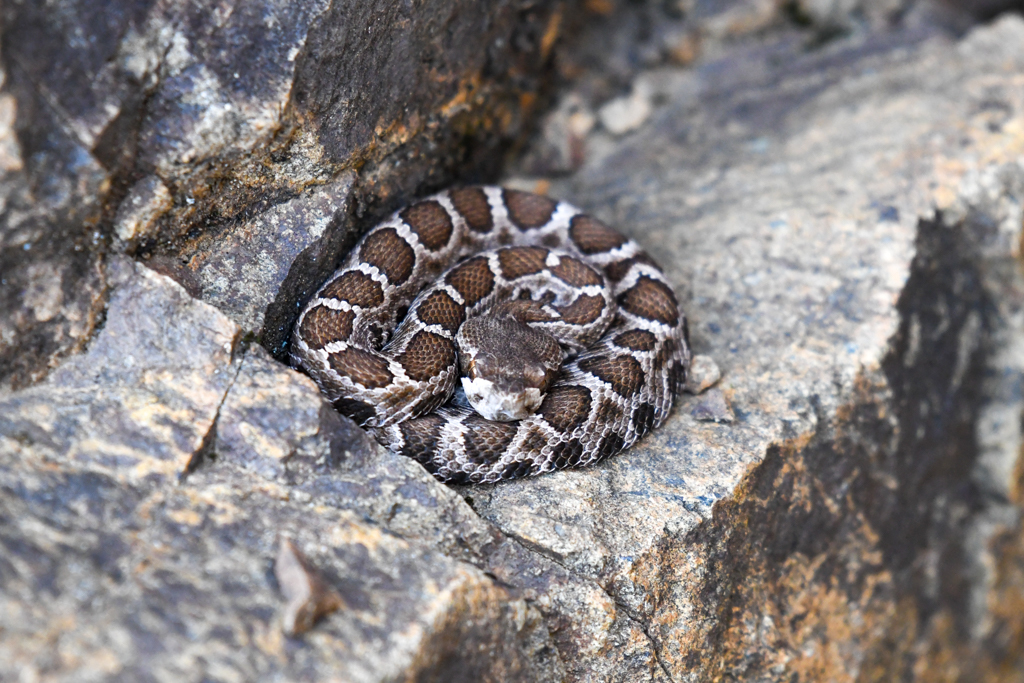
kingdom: Animalia
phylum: Chordata
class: Squamata
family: Viperidae
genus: Crotalus
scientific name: Crotalus oreganus
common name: Abyssus
